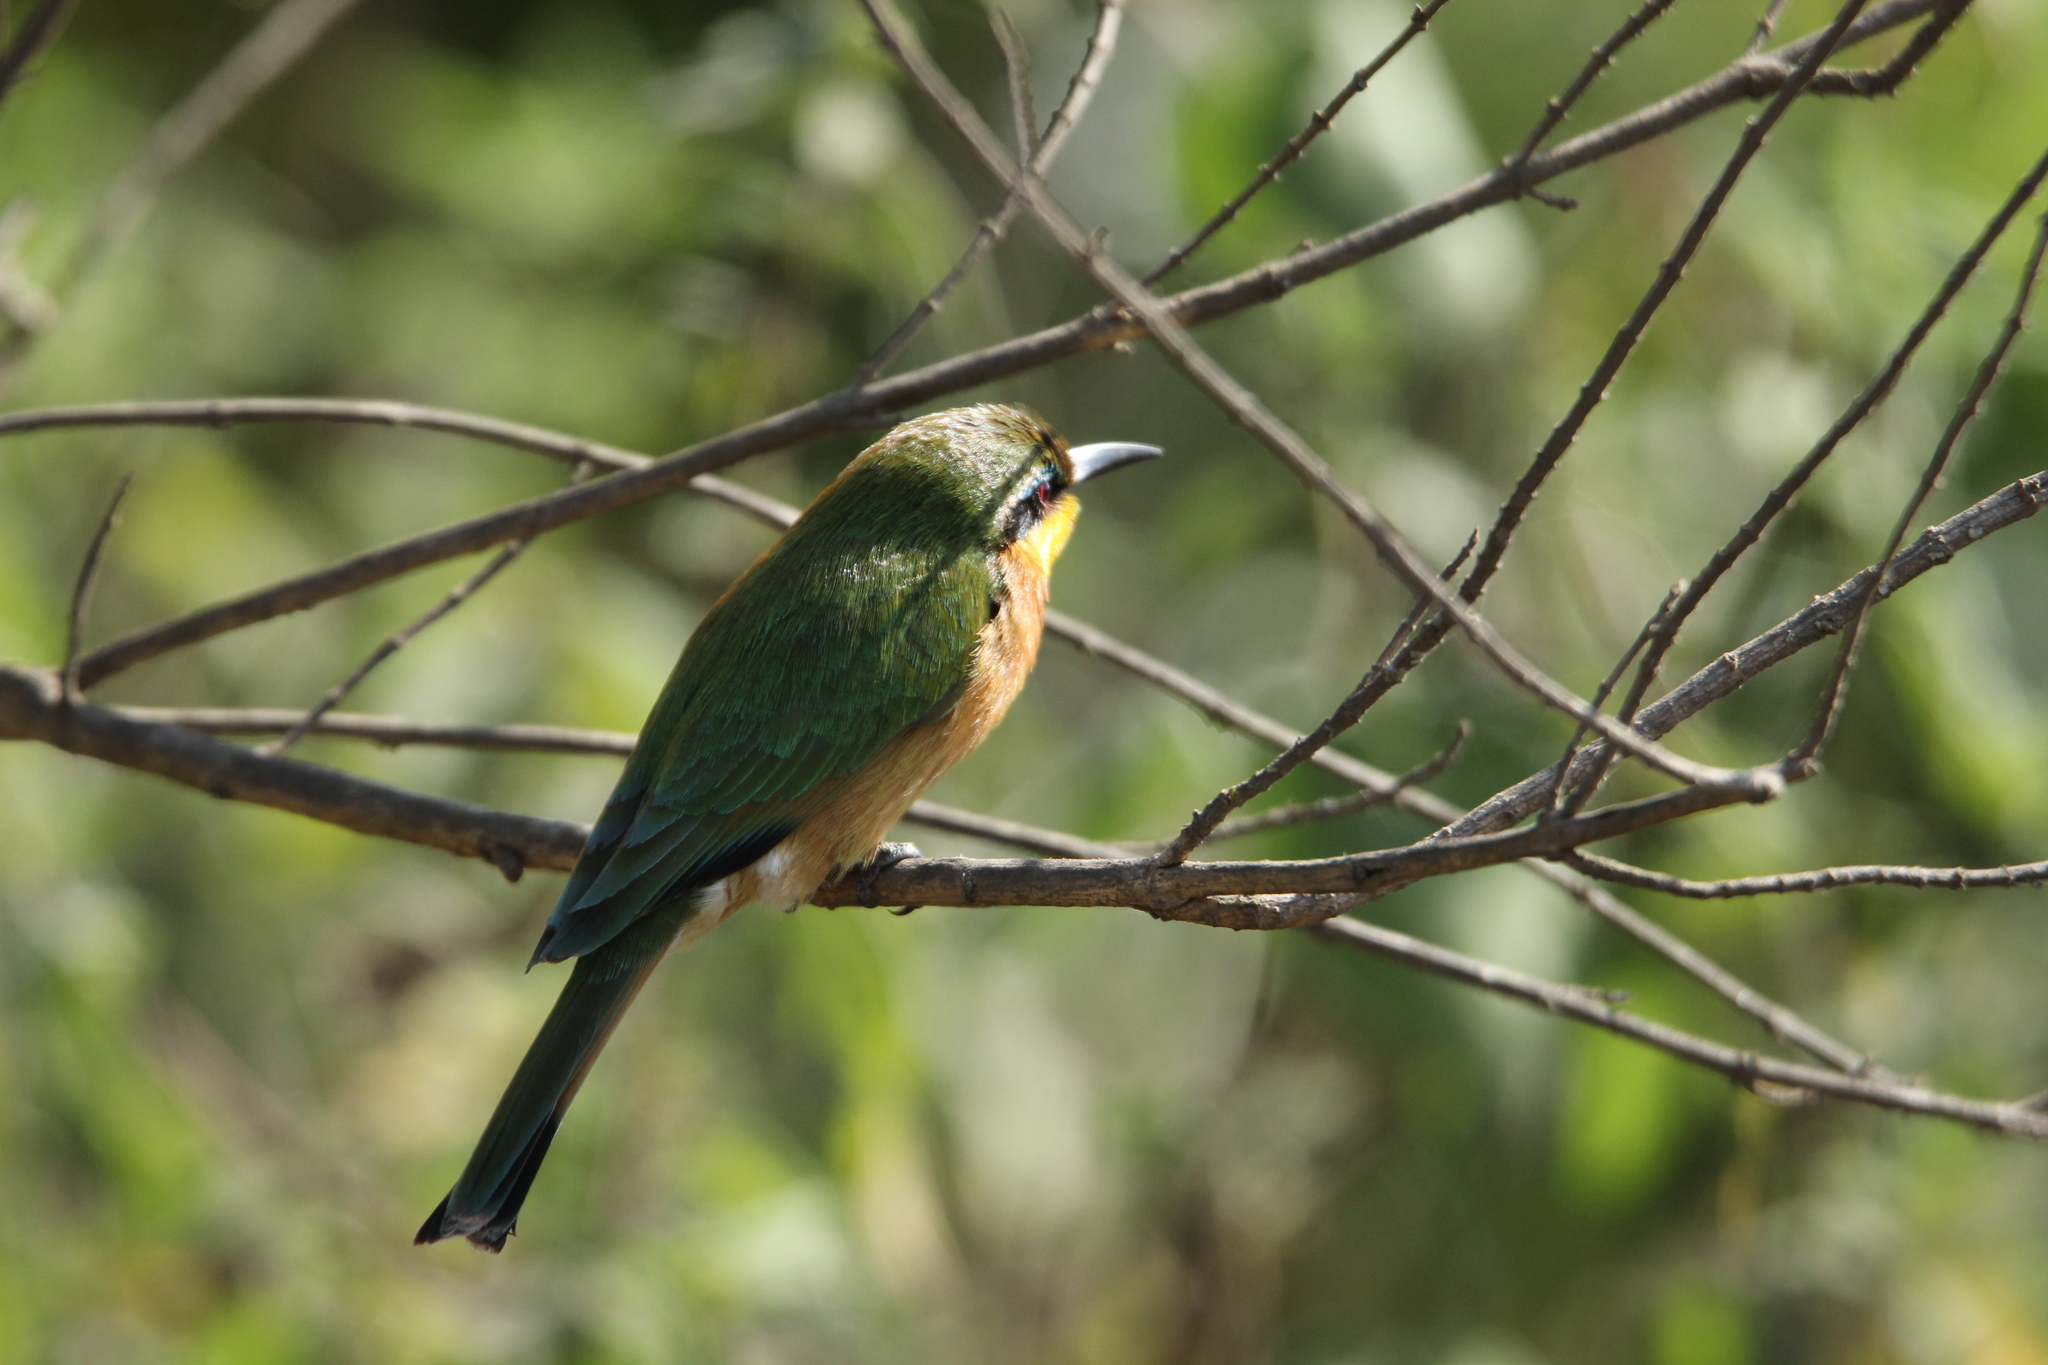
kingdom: Animalia
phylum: Chordata
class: Aves
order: Coraciiformes
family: Meropidae
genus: Merops
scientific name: Merops pusillus
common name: Little bee-eater
